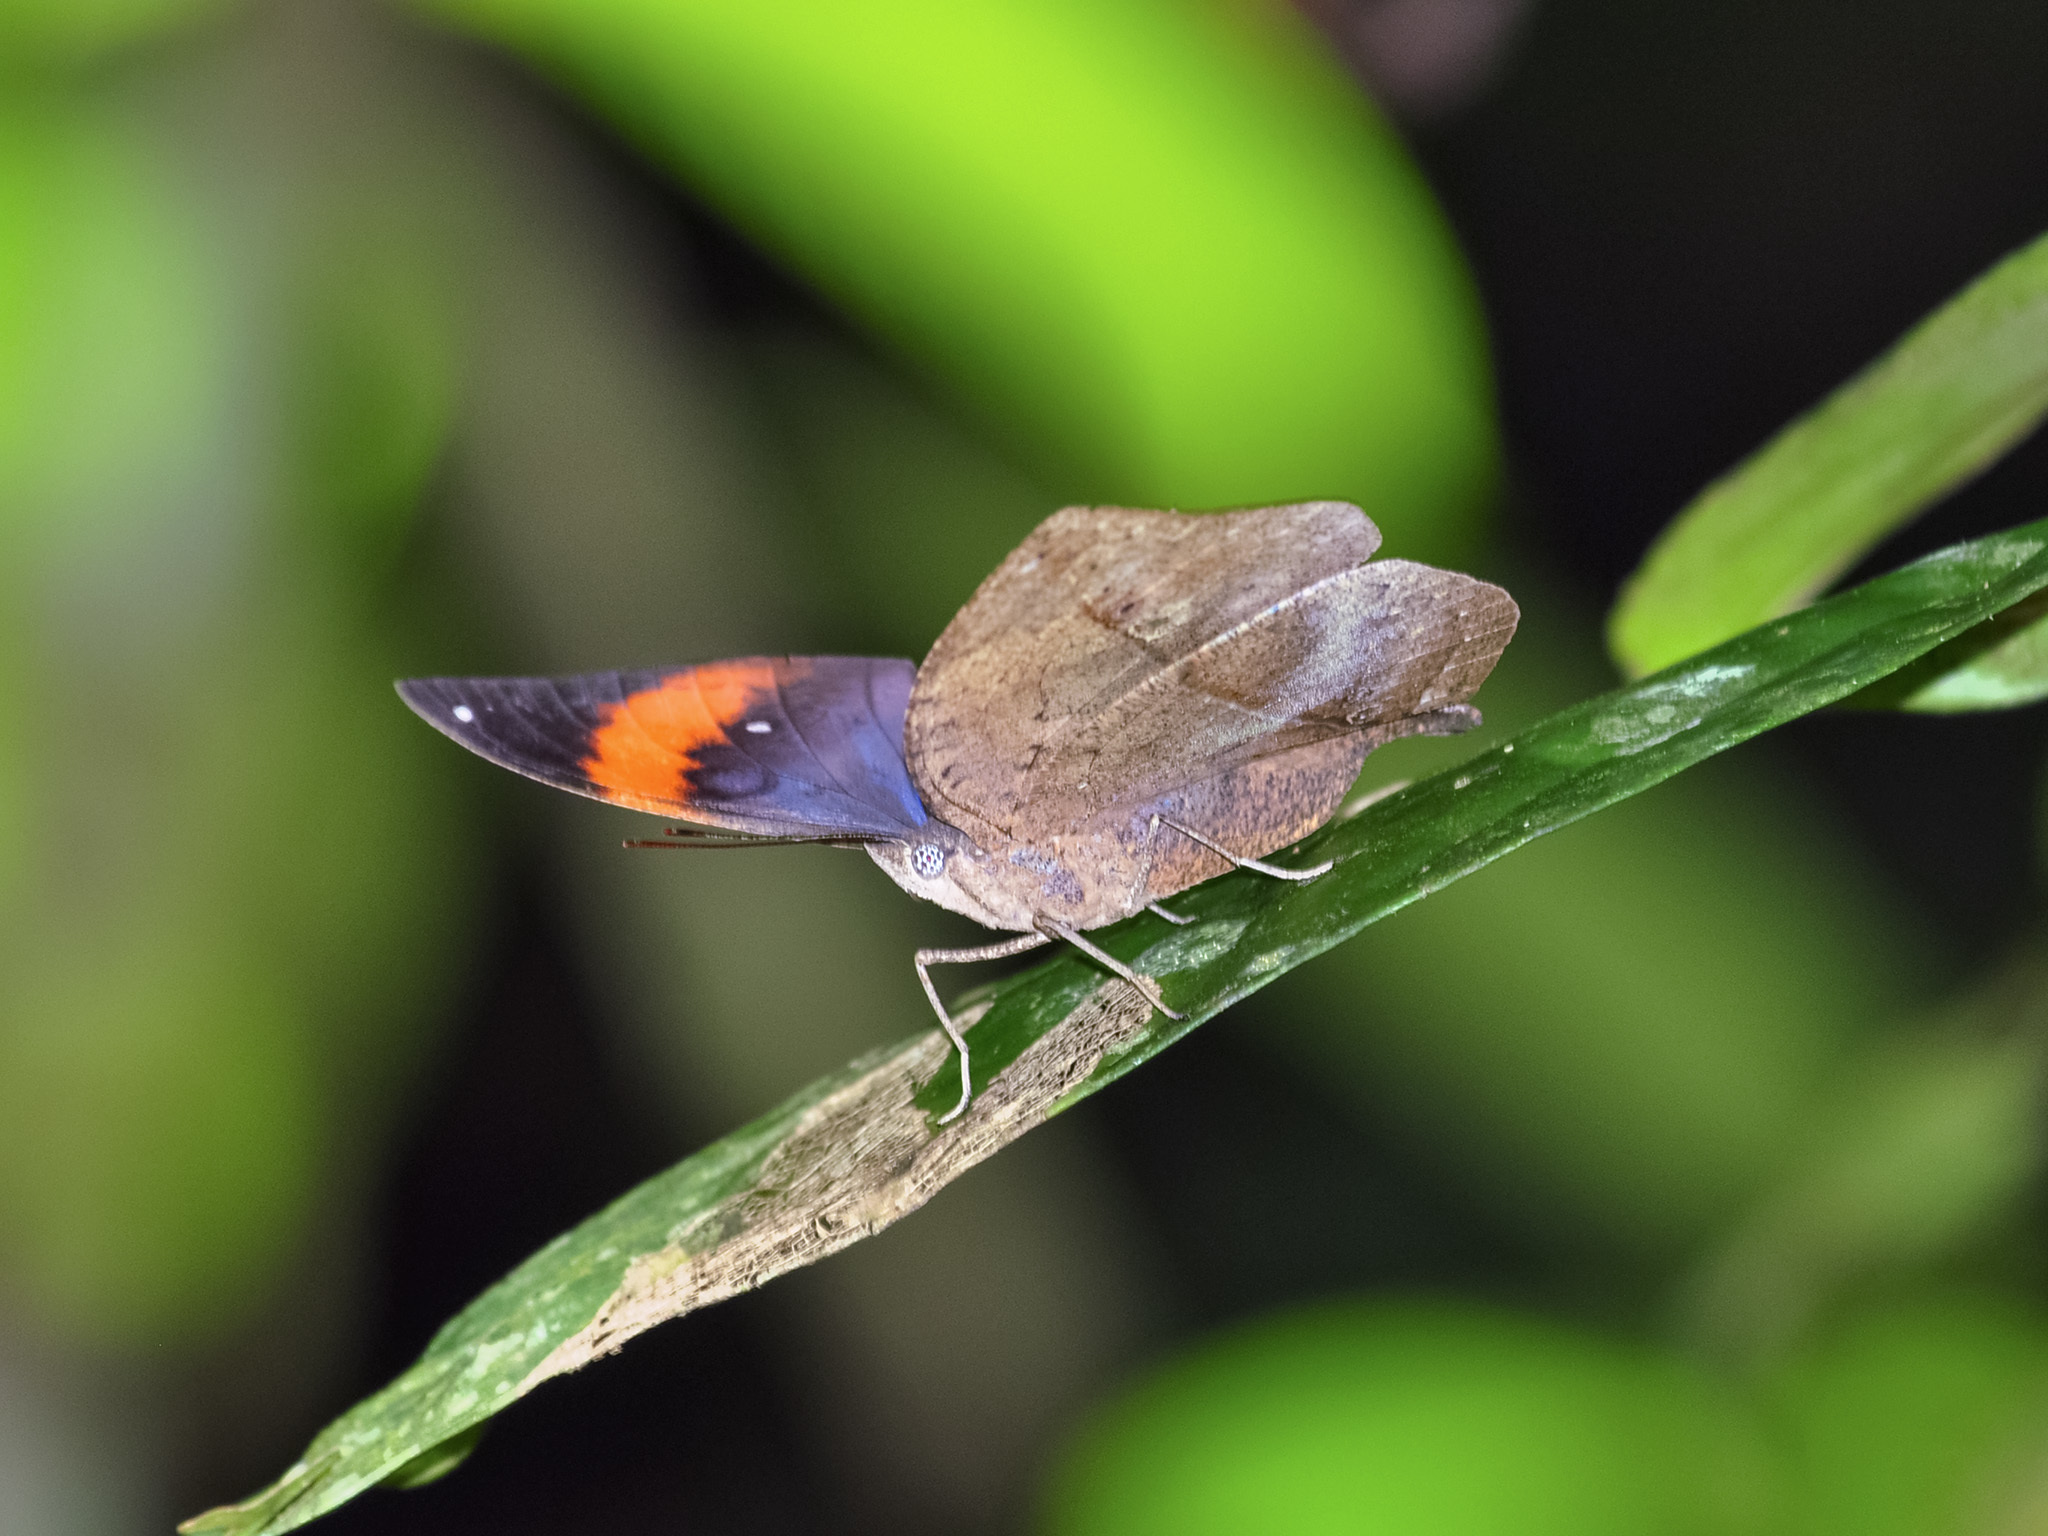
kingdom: Animalia
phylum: Arthropoda
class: Insecta
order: Lepidoptera
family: Nymphalidae
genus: Kallima
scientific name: Kallima paralekta
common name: Indian leafwing
